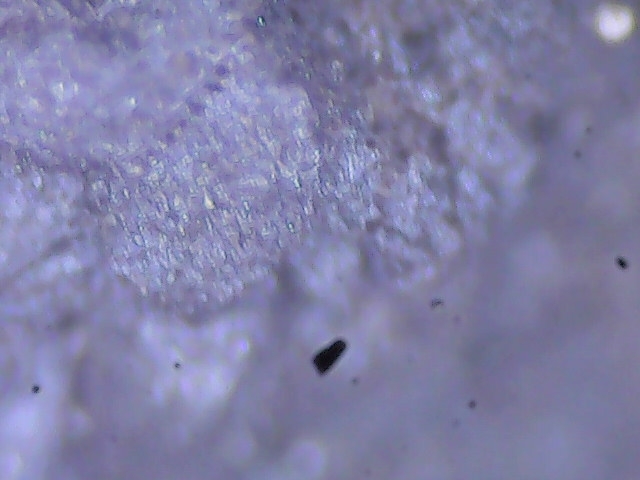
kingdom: Protozoa
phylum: Mycetozoa
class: Myxomycetes
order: Stemonitidales
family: Stemonitidaceae
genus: Brefeldia
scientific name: Brefeldia maxima
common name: Tapioca slime mold
